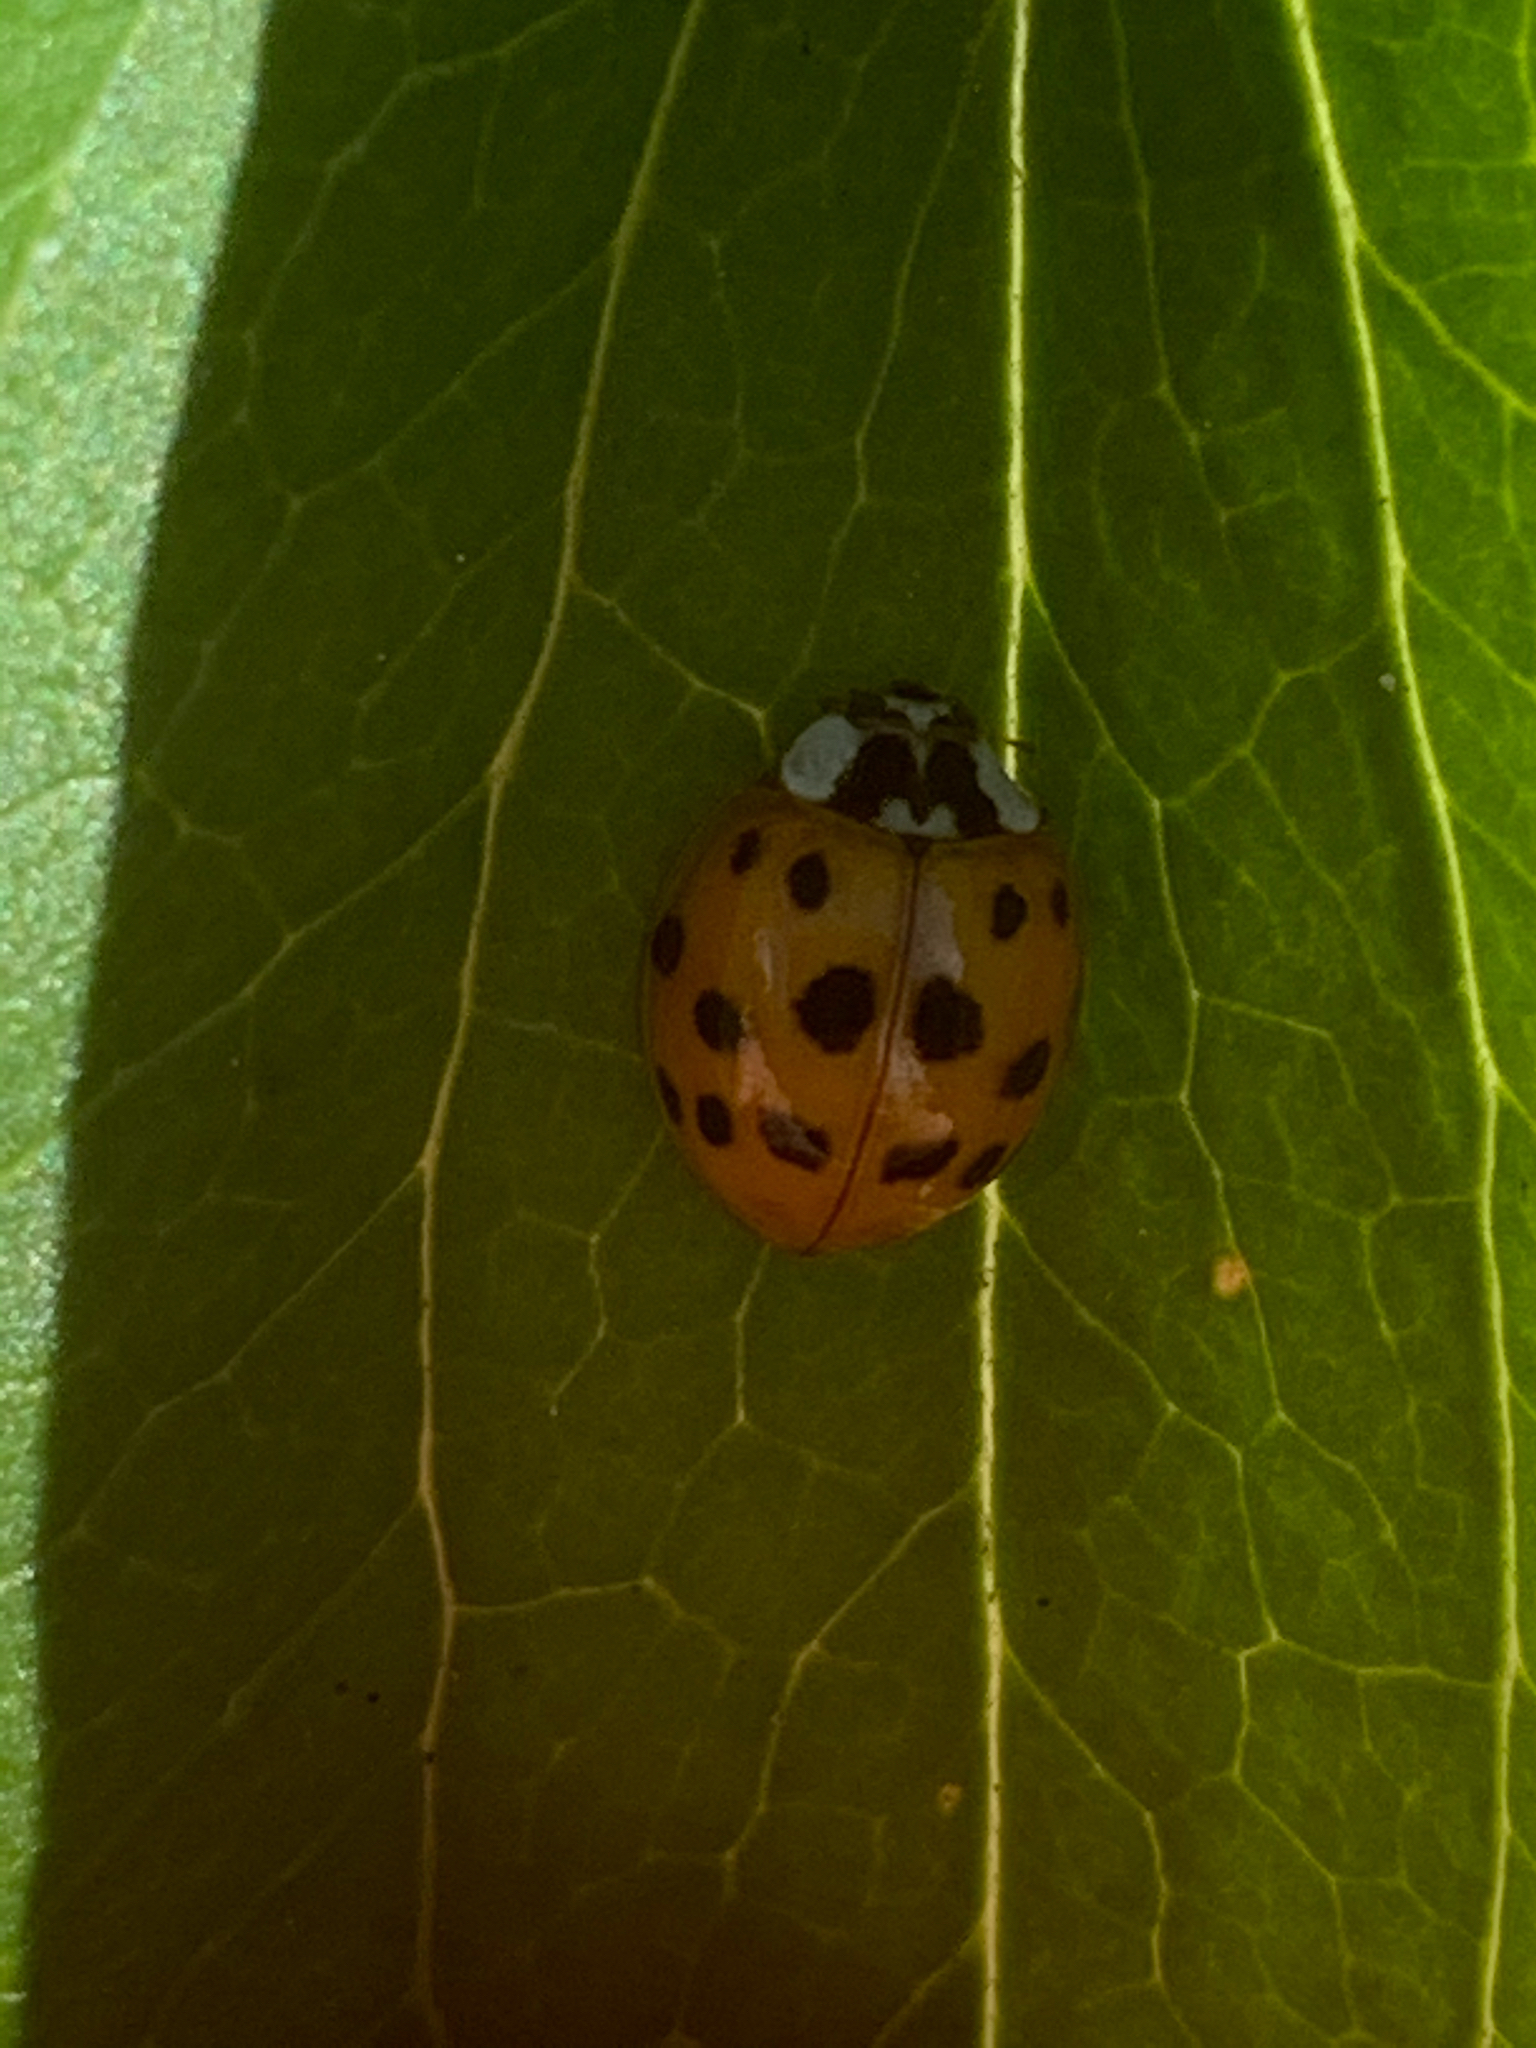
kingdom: Animalia
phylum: Arthropoda
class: Insecta
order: Coleoptera
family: Coccinellidae
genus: Harmonia
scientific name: Harmonia axyridis
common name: Harlequin ladybird
